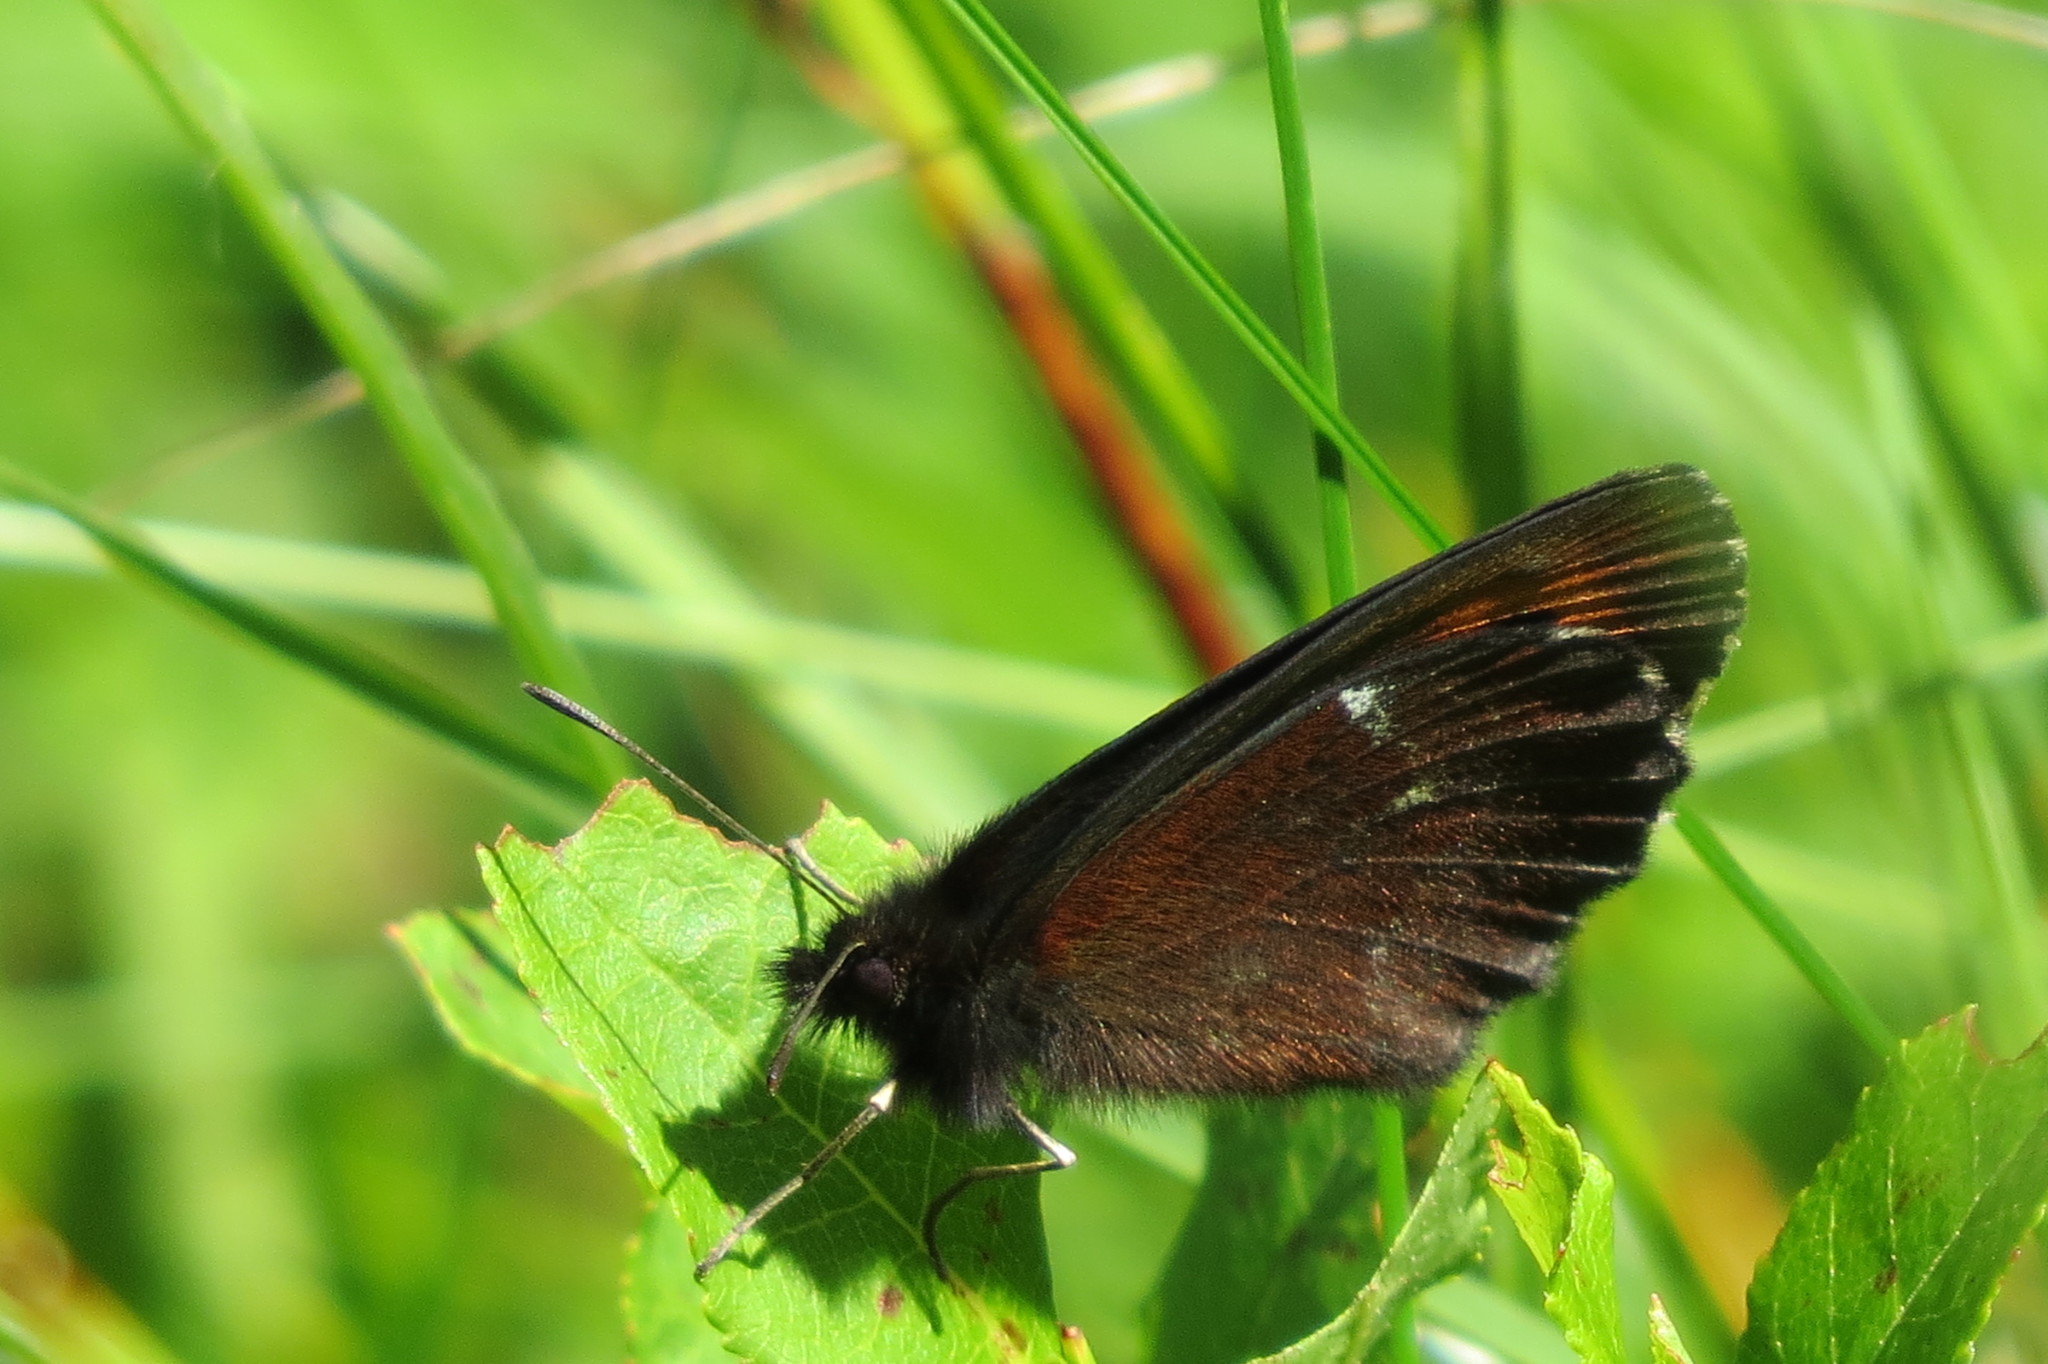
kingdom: Animalia
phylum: Arthropoda
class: Insecta
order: Lepidoptera
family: Nymphalidae
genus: Erebia
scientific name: Erebia euryale
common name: Large ringlet
